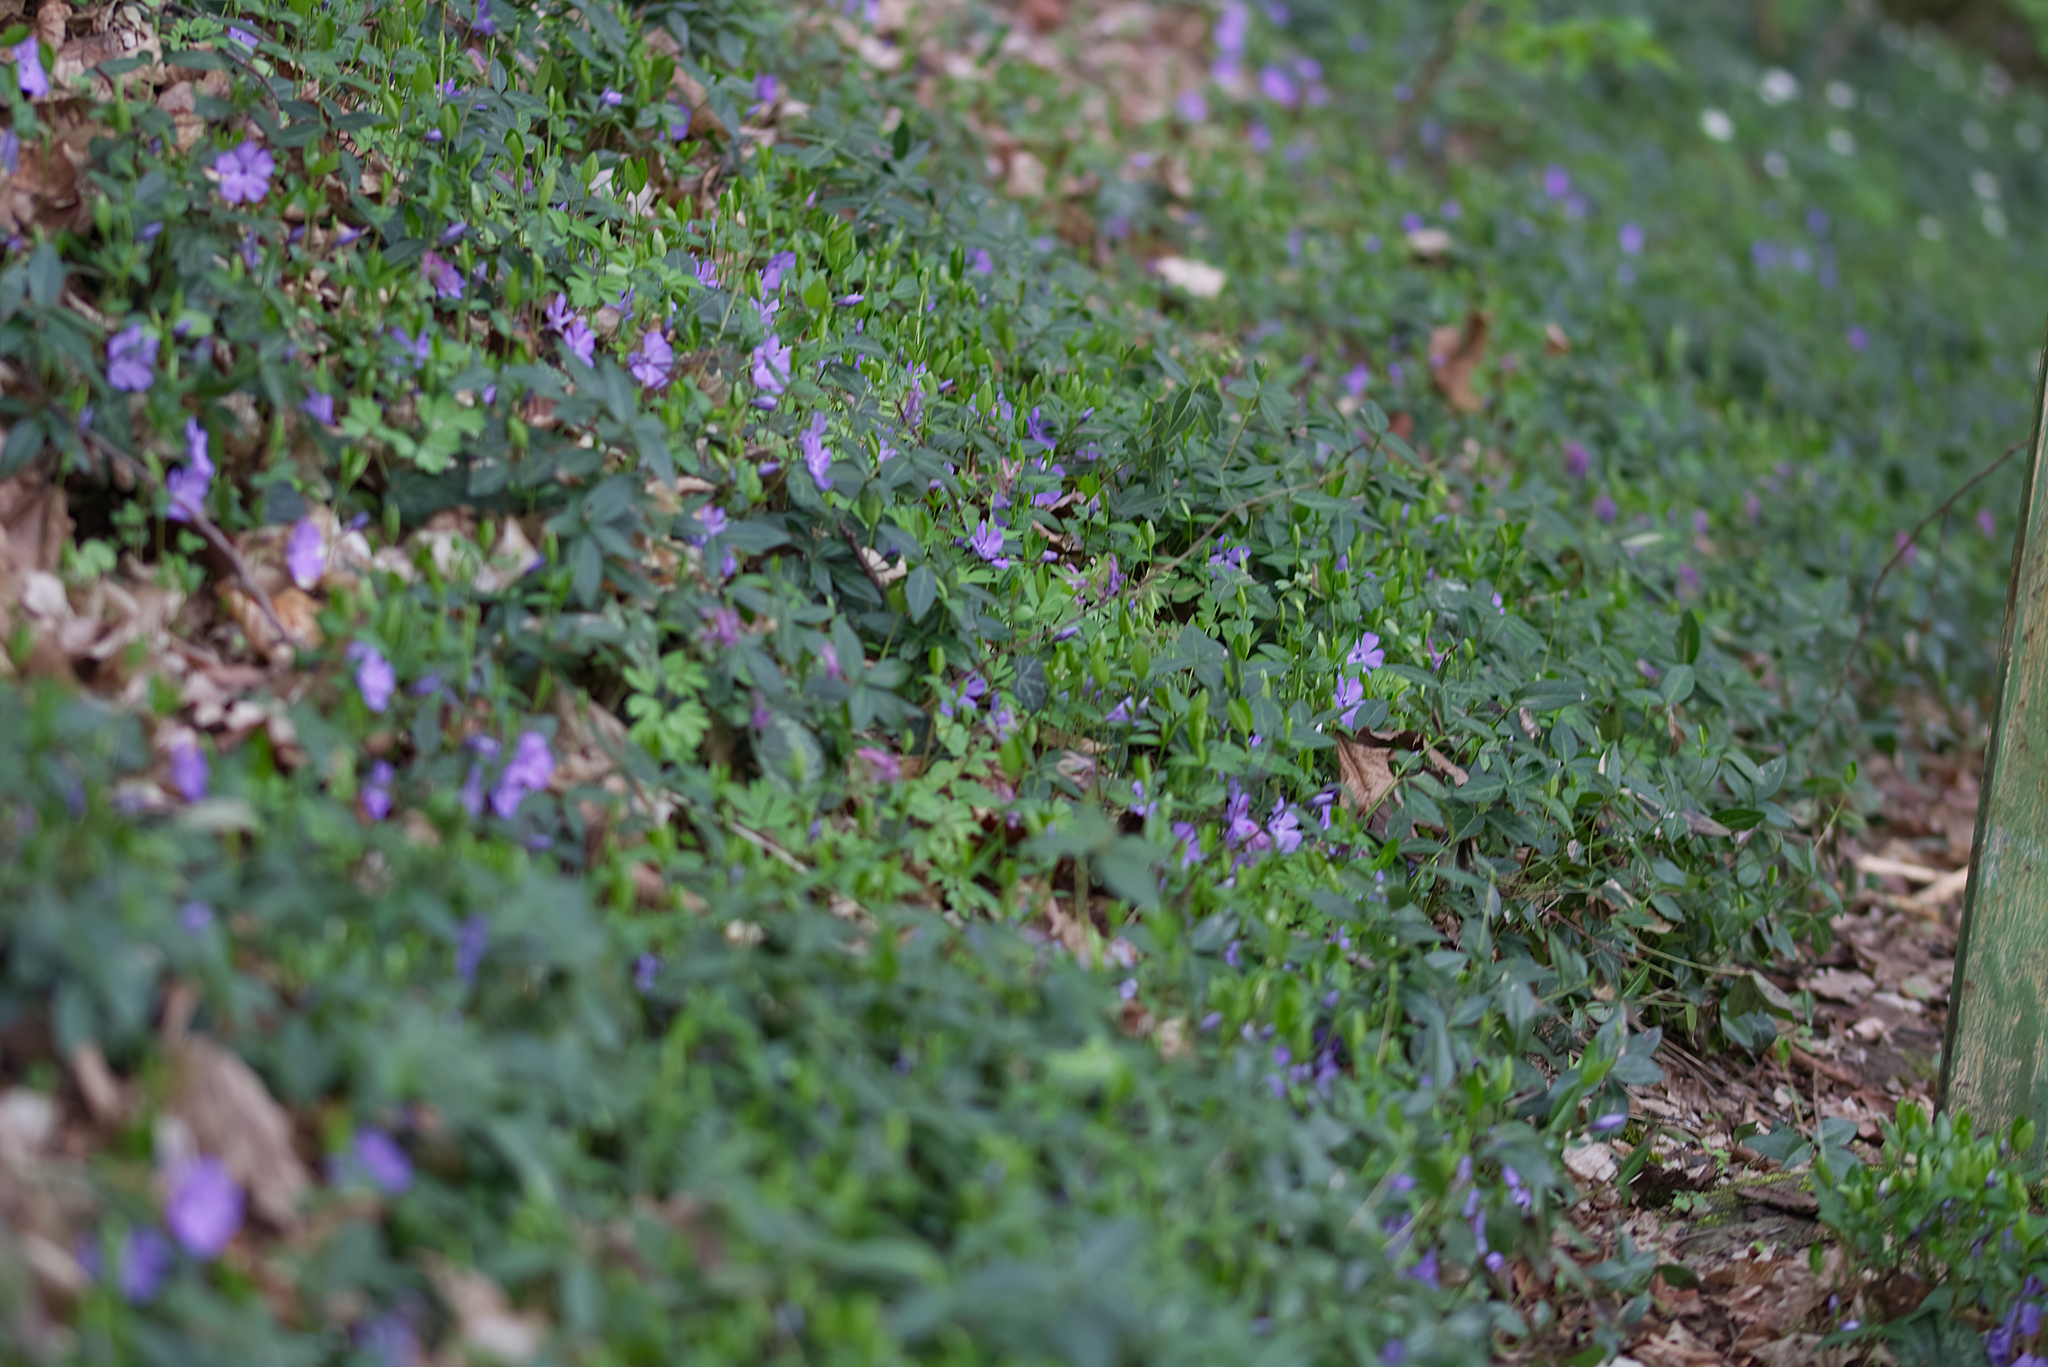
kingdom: Plantae
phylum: Tracheophyta
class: Magnoliopsida
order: Gentianales
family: Apocynaceae
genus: Vinca
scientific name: Vinca minor
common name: Lesser periwinkle
